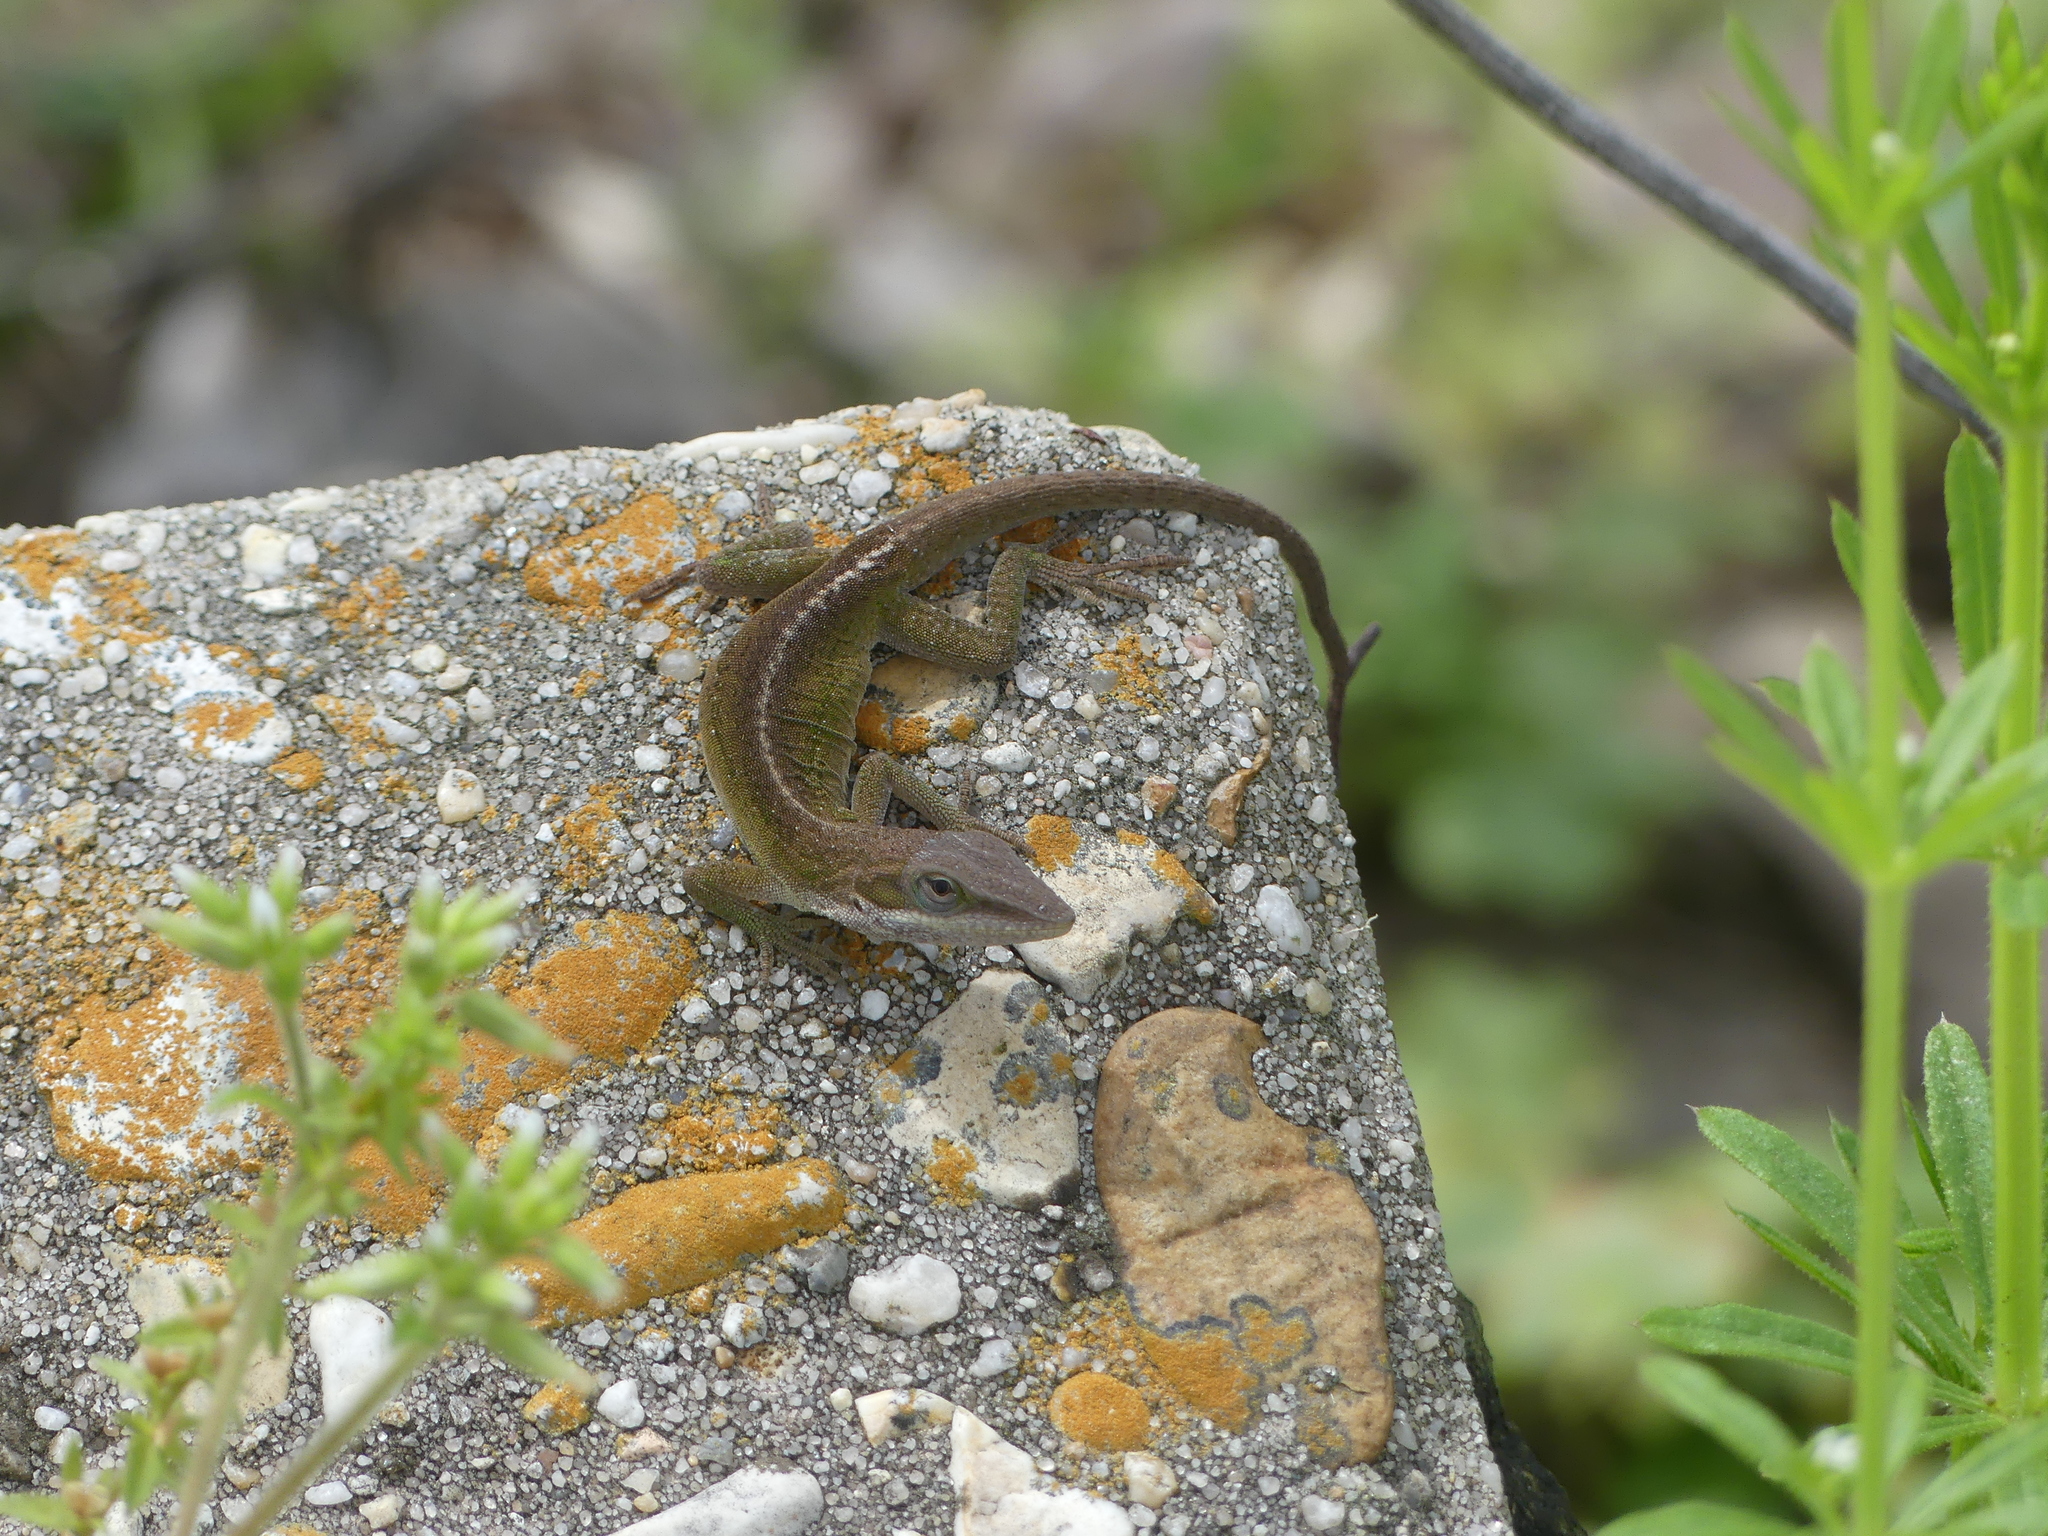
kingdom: Animalia
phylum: Chordata
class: Squamata
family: Dactyloidae
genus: Anolis
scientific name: Anolis carolinensis
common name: Green anole
